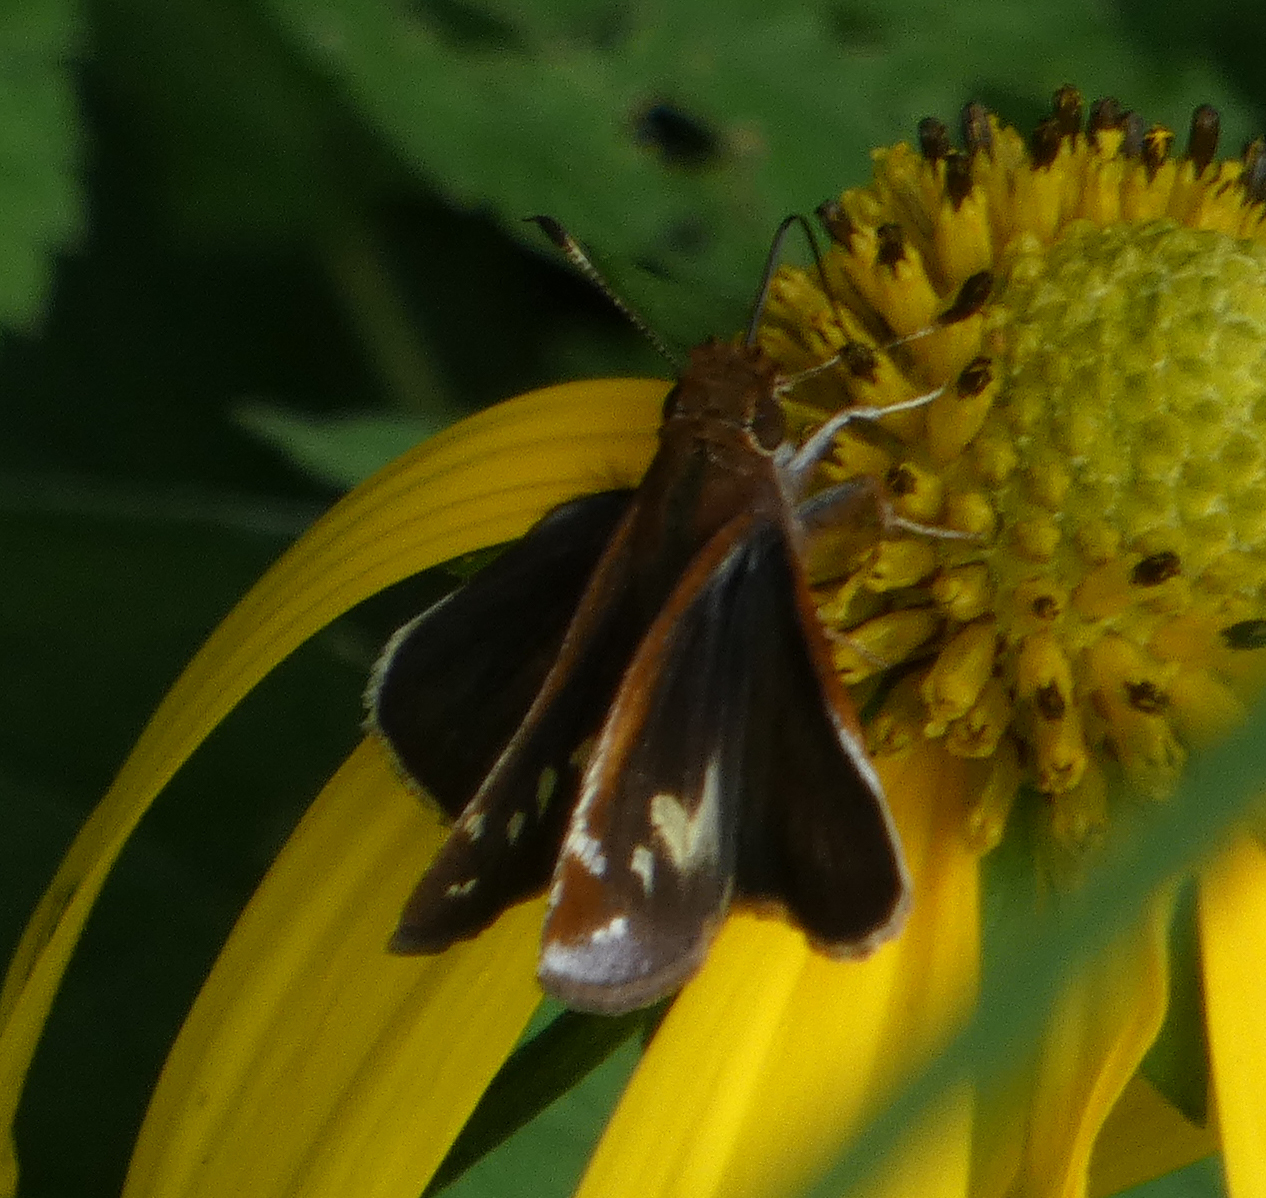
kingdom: Animalia
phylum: Arthropoda
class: Insecta
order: Lepidoptera
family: Hesperiidae
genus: Lon
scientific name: Lon zabulon
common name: Zabulon skipper
